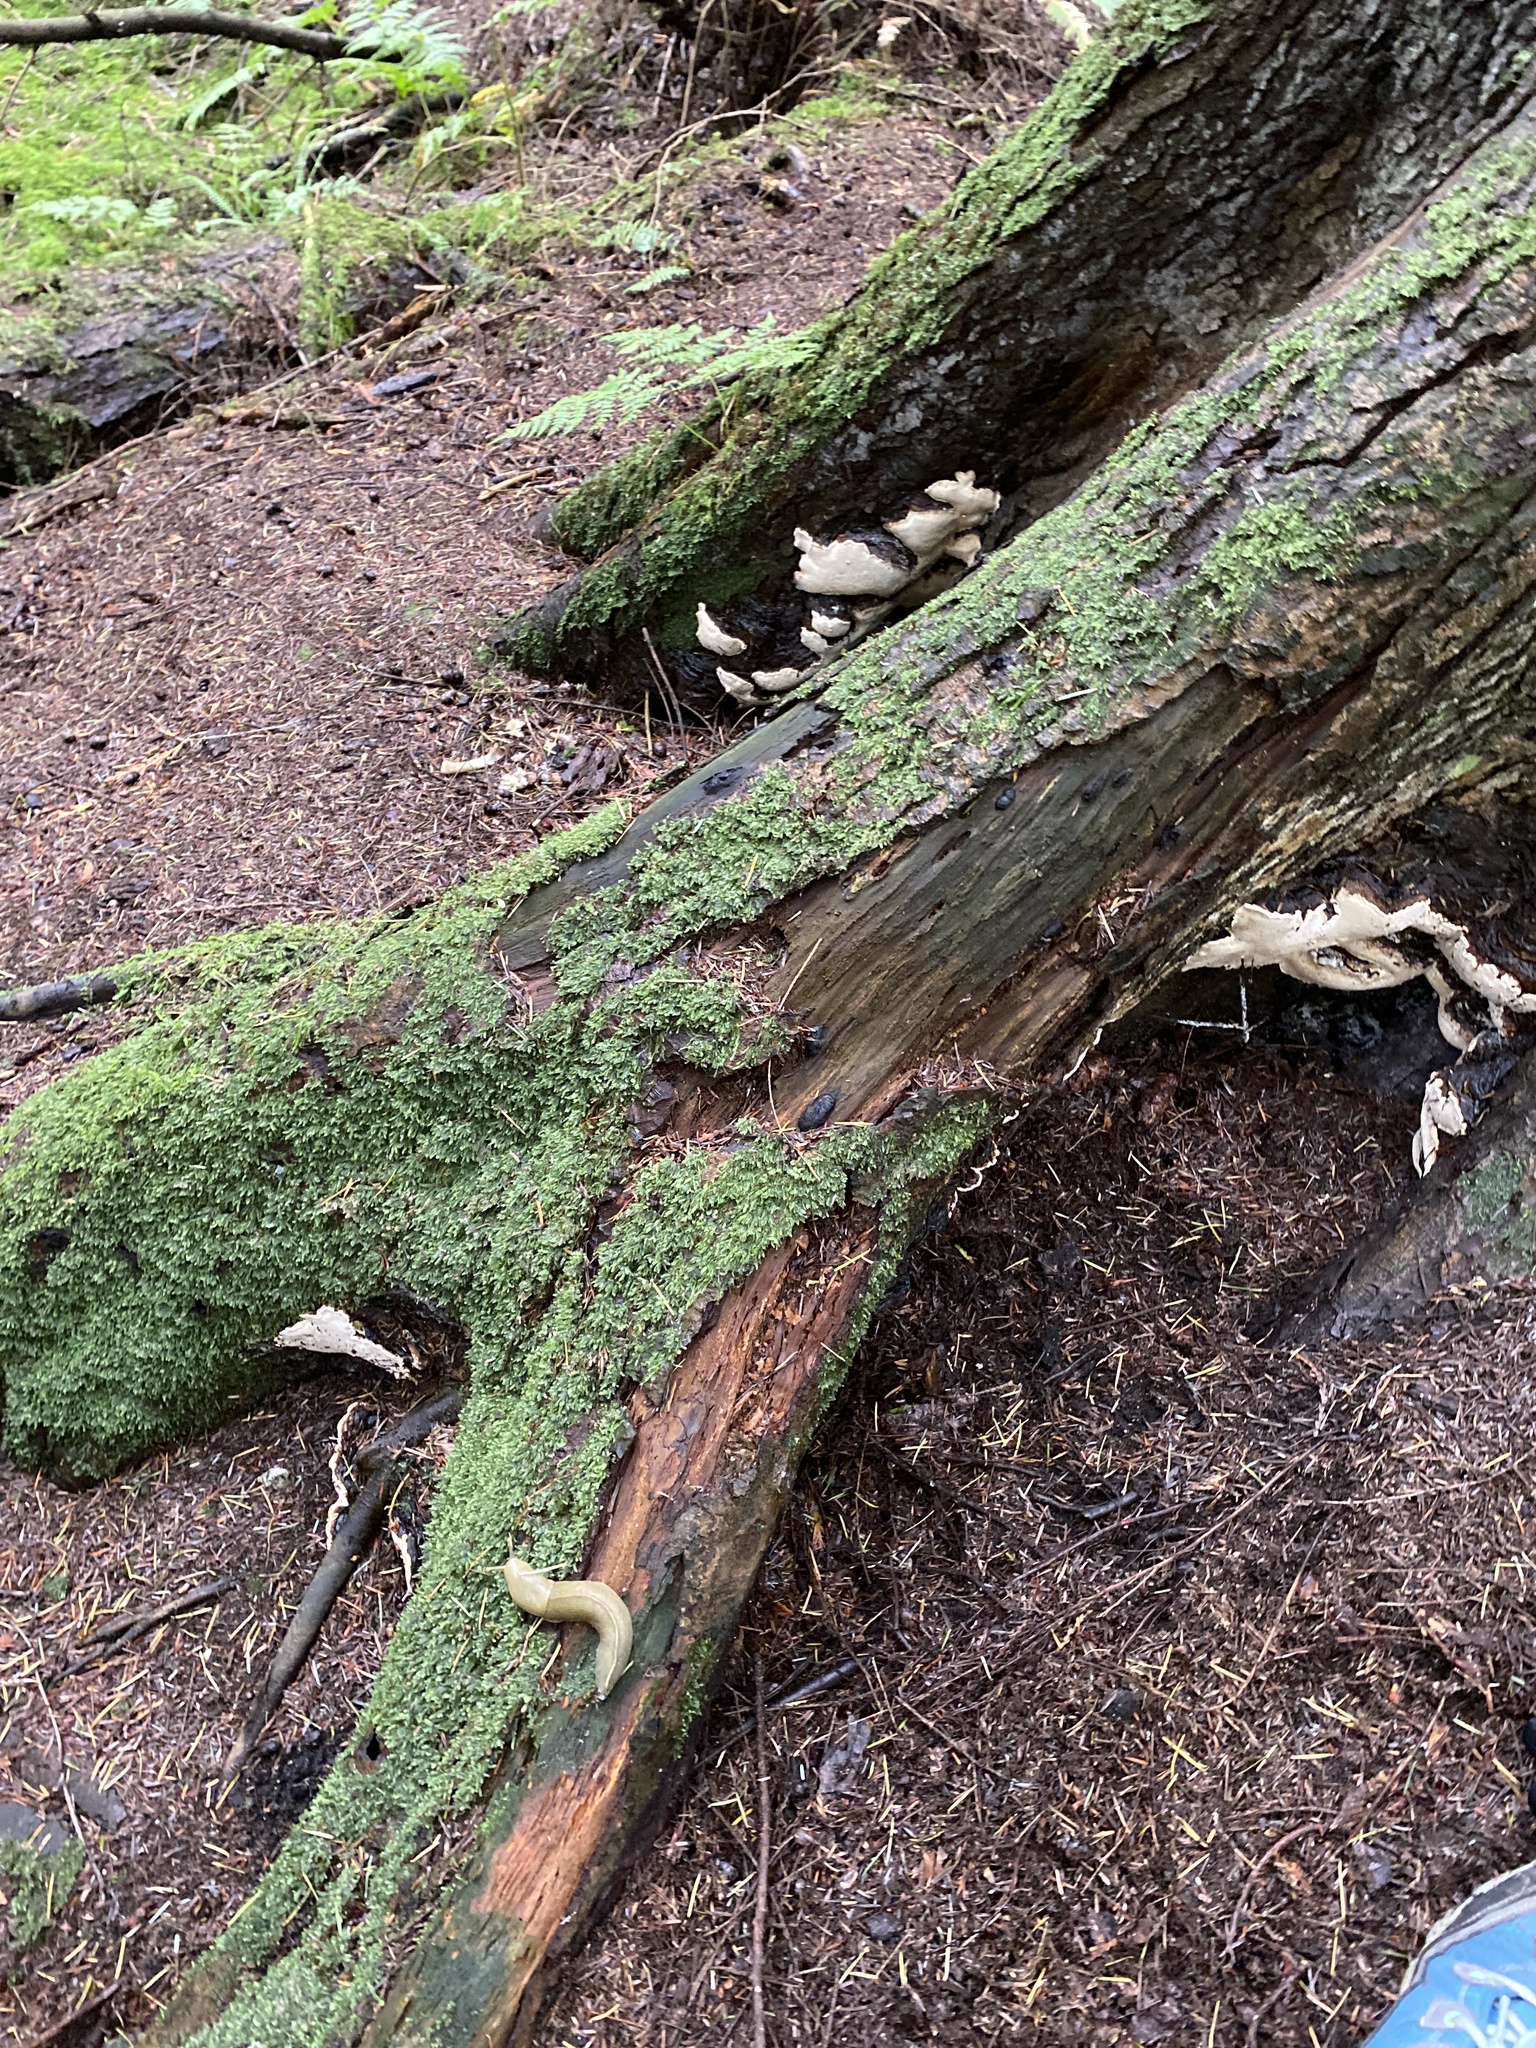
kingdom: Animalia
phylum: Mollusca
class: Gastropoda
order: Stylommatophora
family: Ariolimacidae
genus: Ariolimax
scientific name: Ariolimax columbianus
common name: Pacific banana slug
